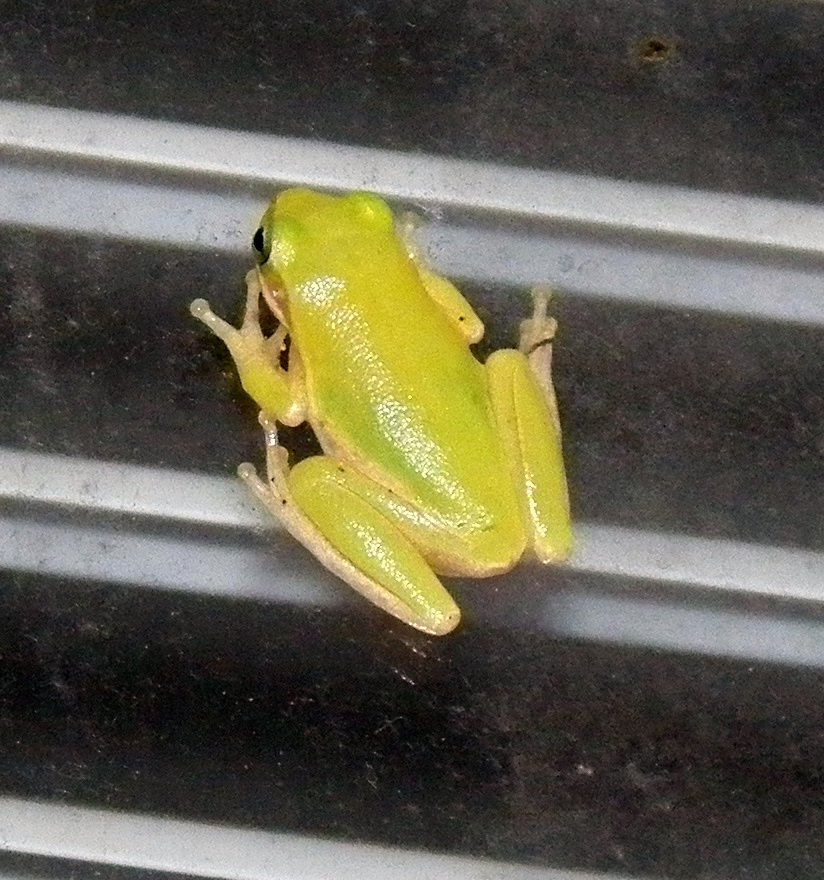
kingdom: Animalia
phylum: Chordata
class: Amphibia
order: Anura
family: Hylidae
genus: Dryophytes
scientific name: Dryophytes cinereus
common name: Green treefrog
